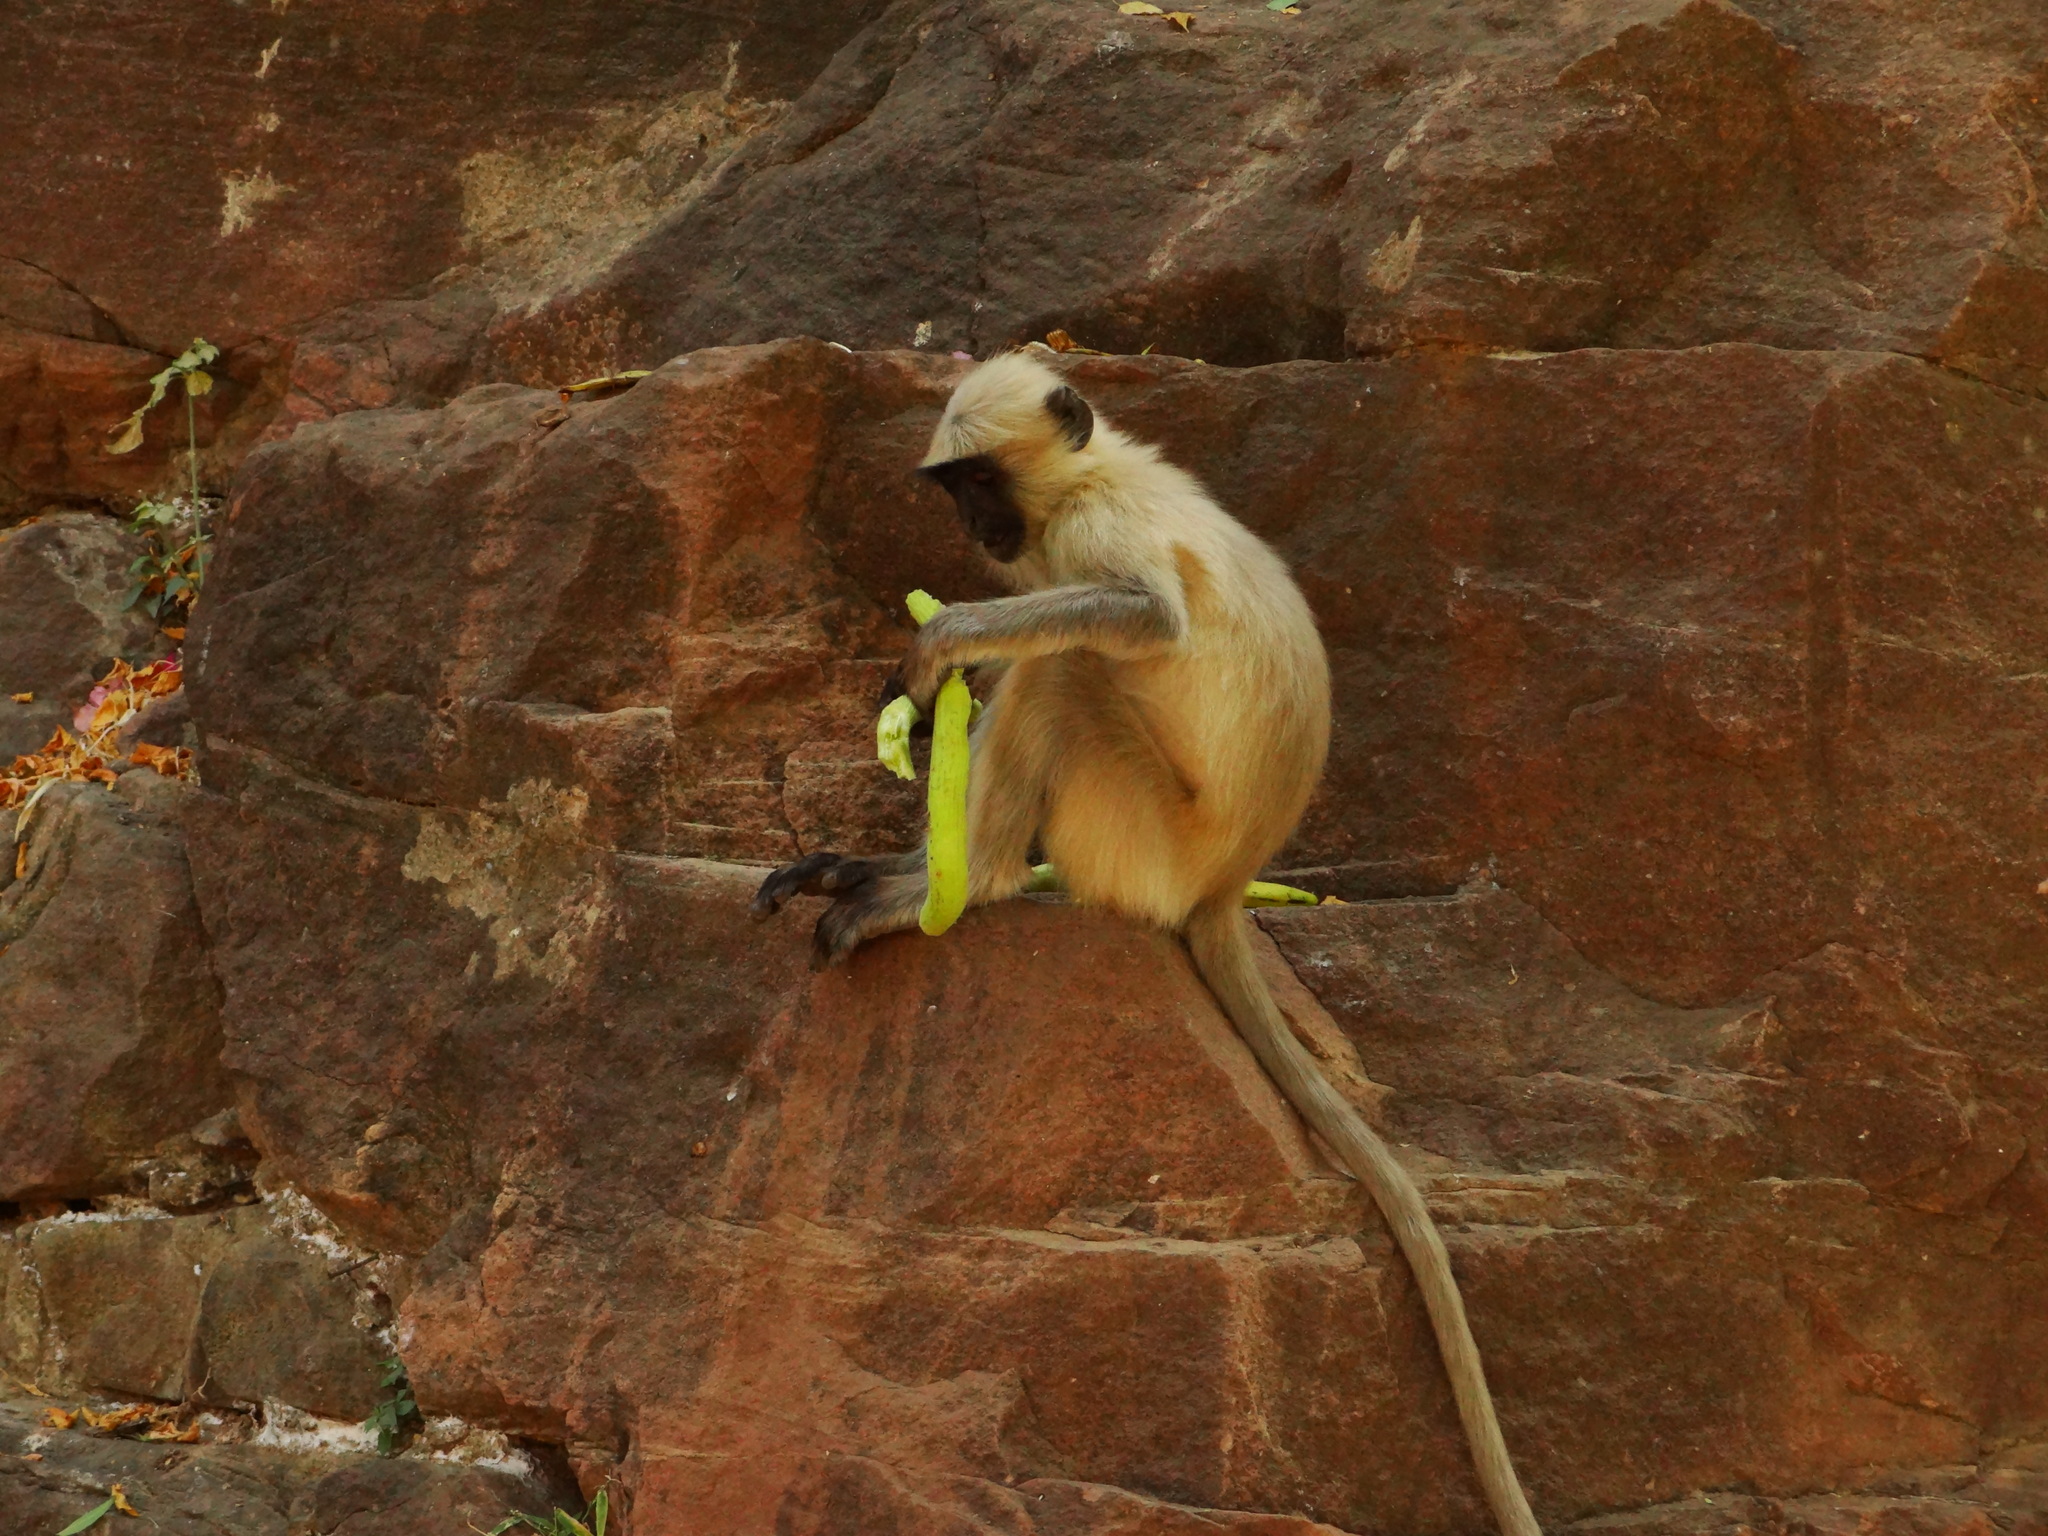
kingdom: Animalia
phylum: Chordata
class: Mammalia
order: Primates
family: Cercopithecidae
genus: Semnopithecus
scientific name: Semnopithecus entellus
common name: Northern plains gray langur
